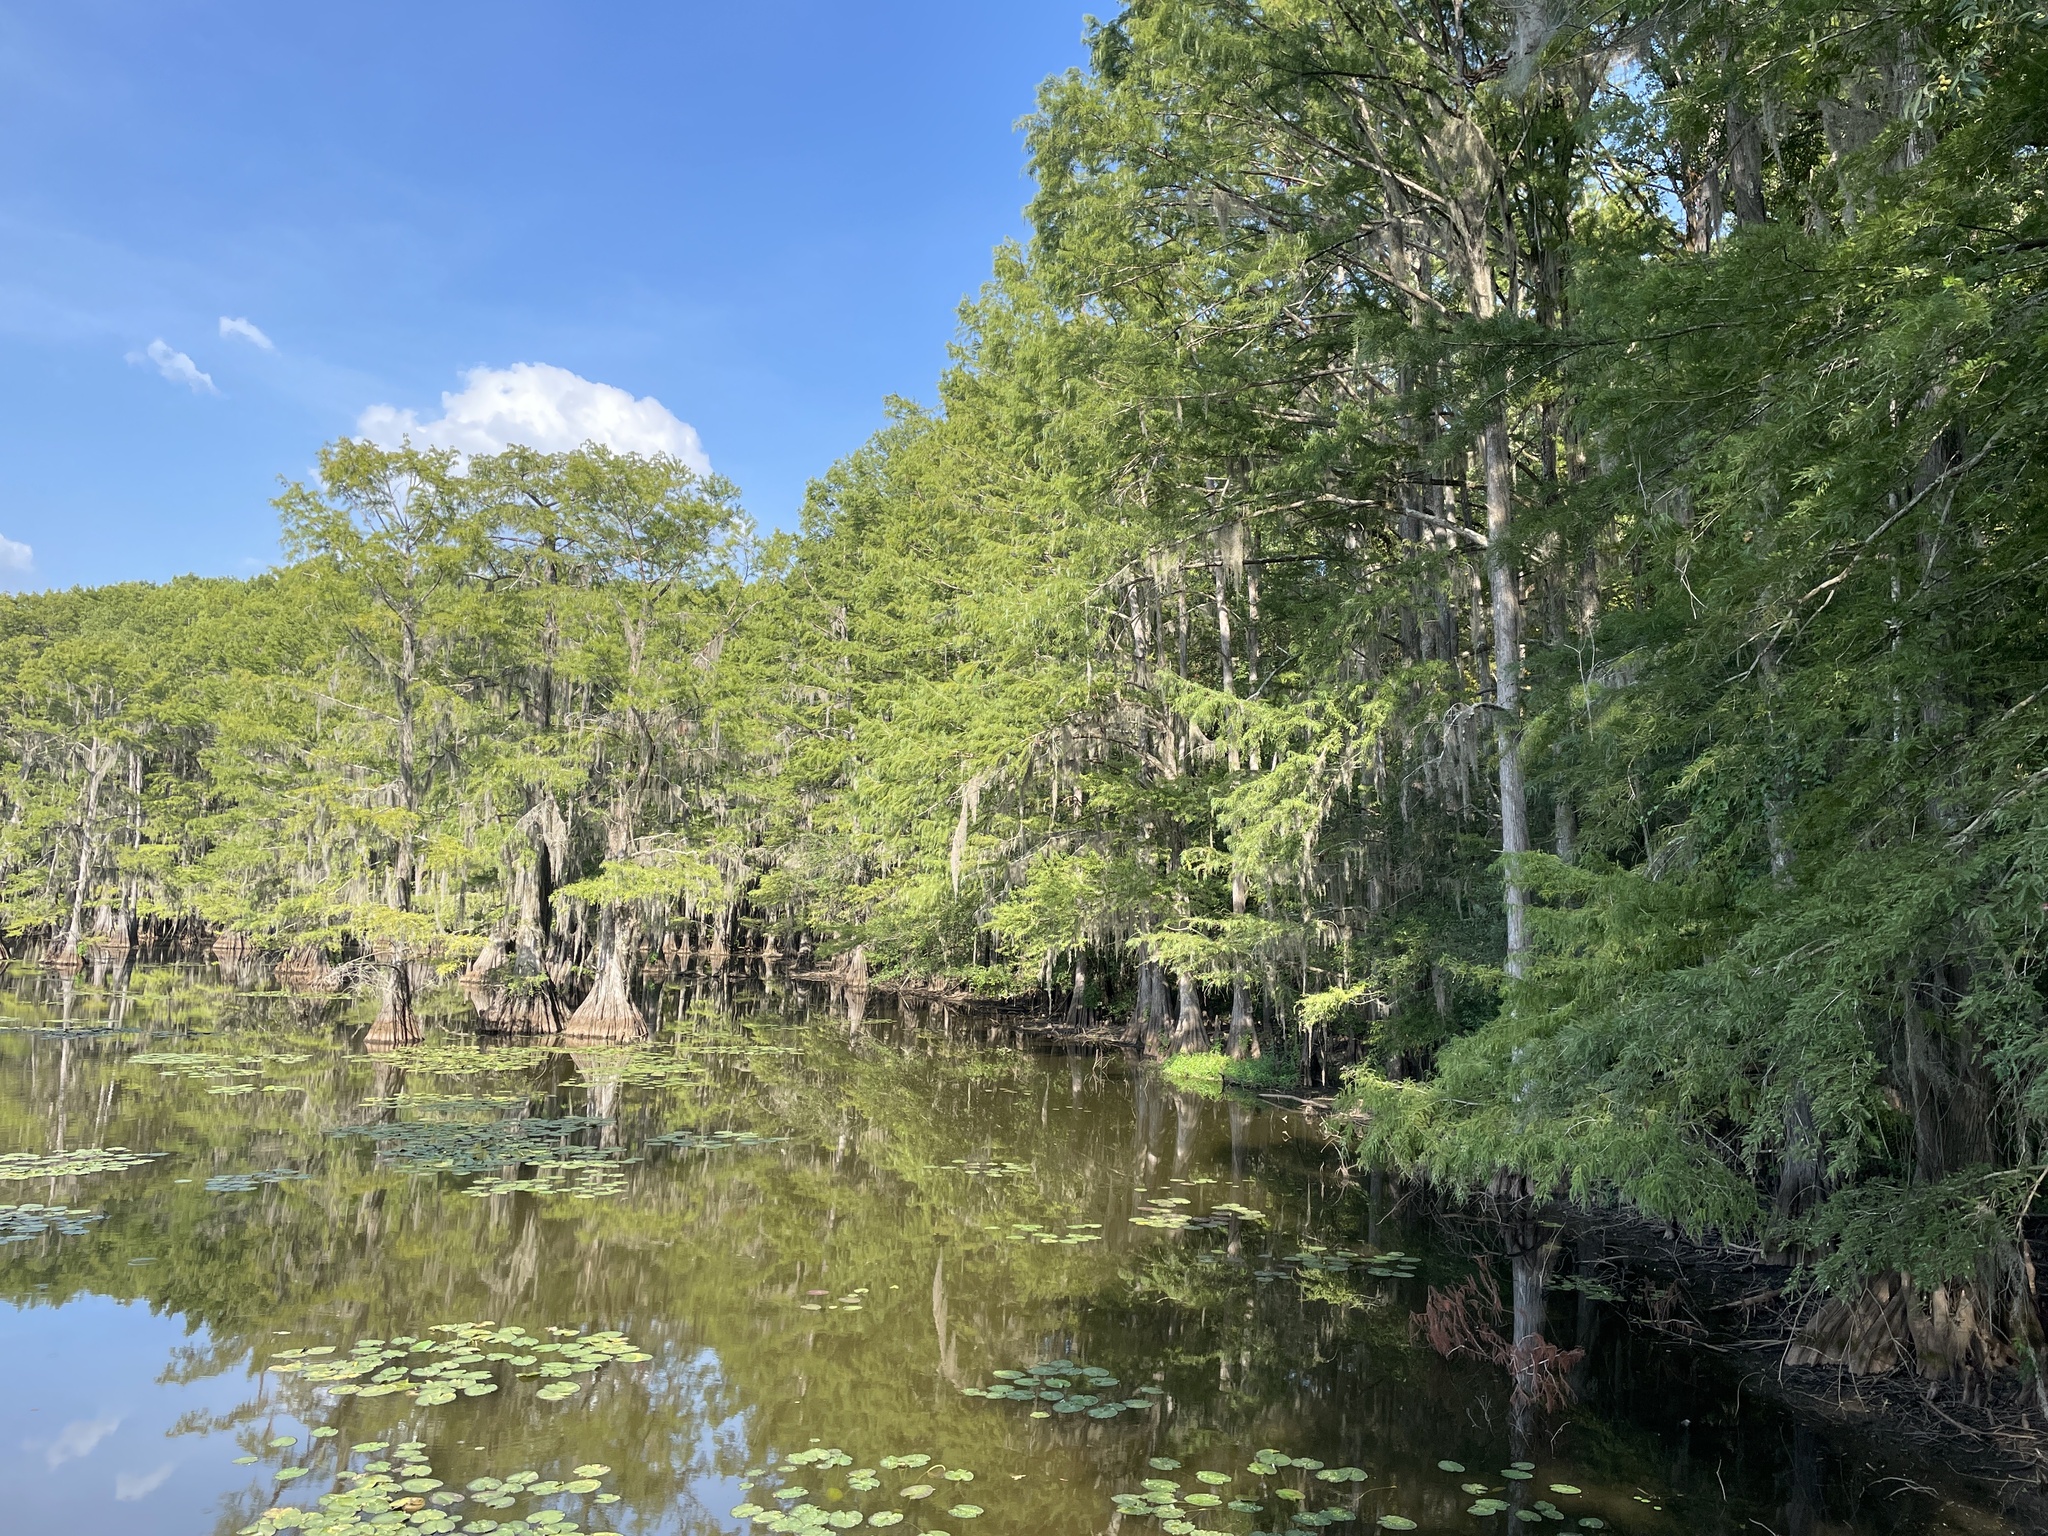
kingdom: Animalia
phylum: Chordata
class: Aves
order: Strigiformes
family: Strigidae
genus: Strix
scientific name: Strix varia
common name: Barred owl
